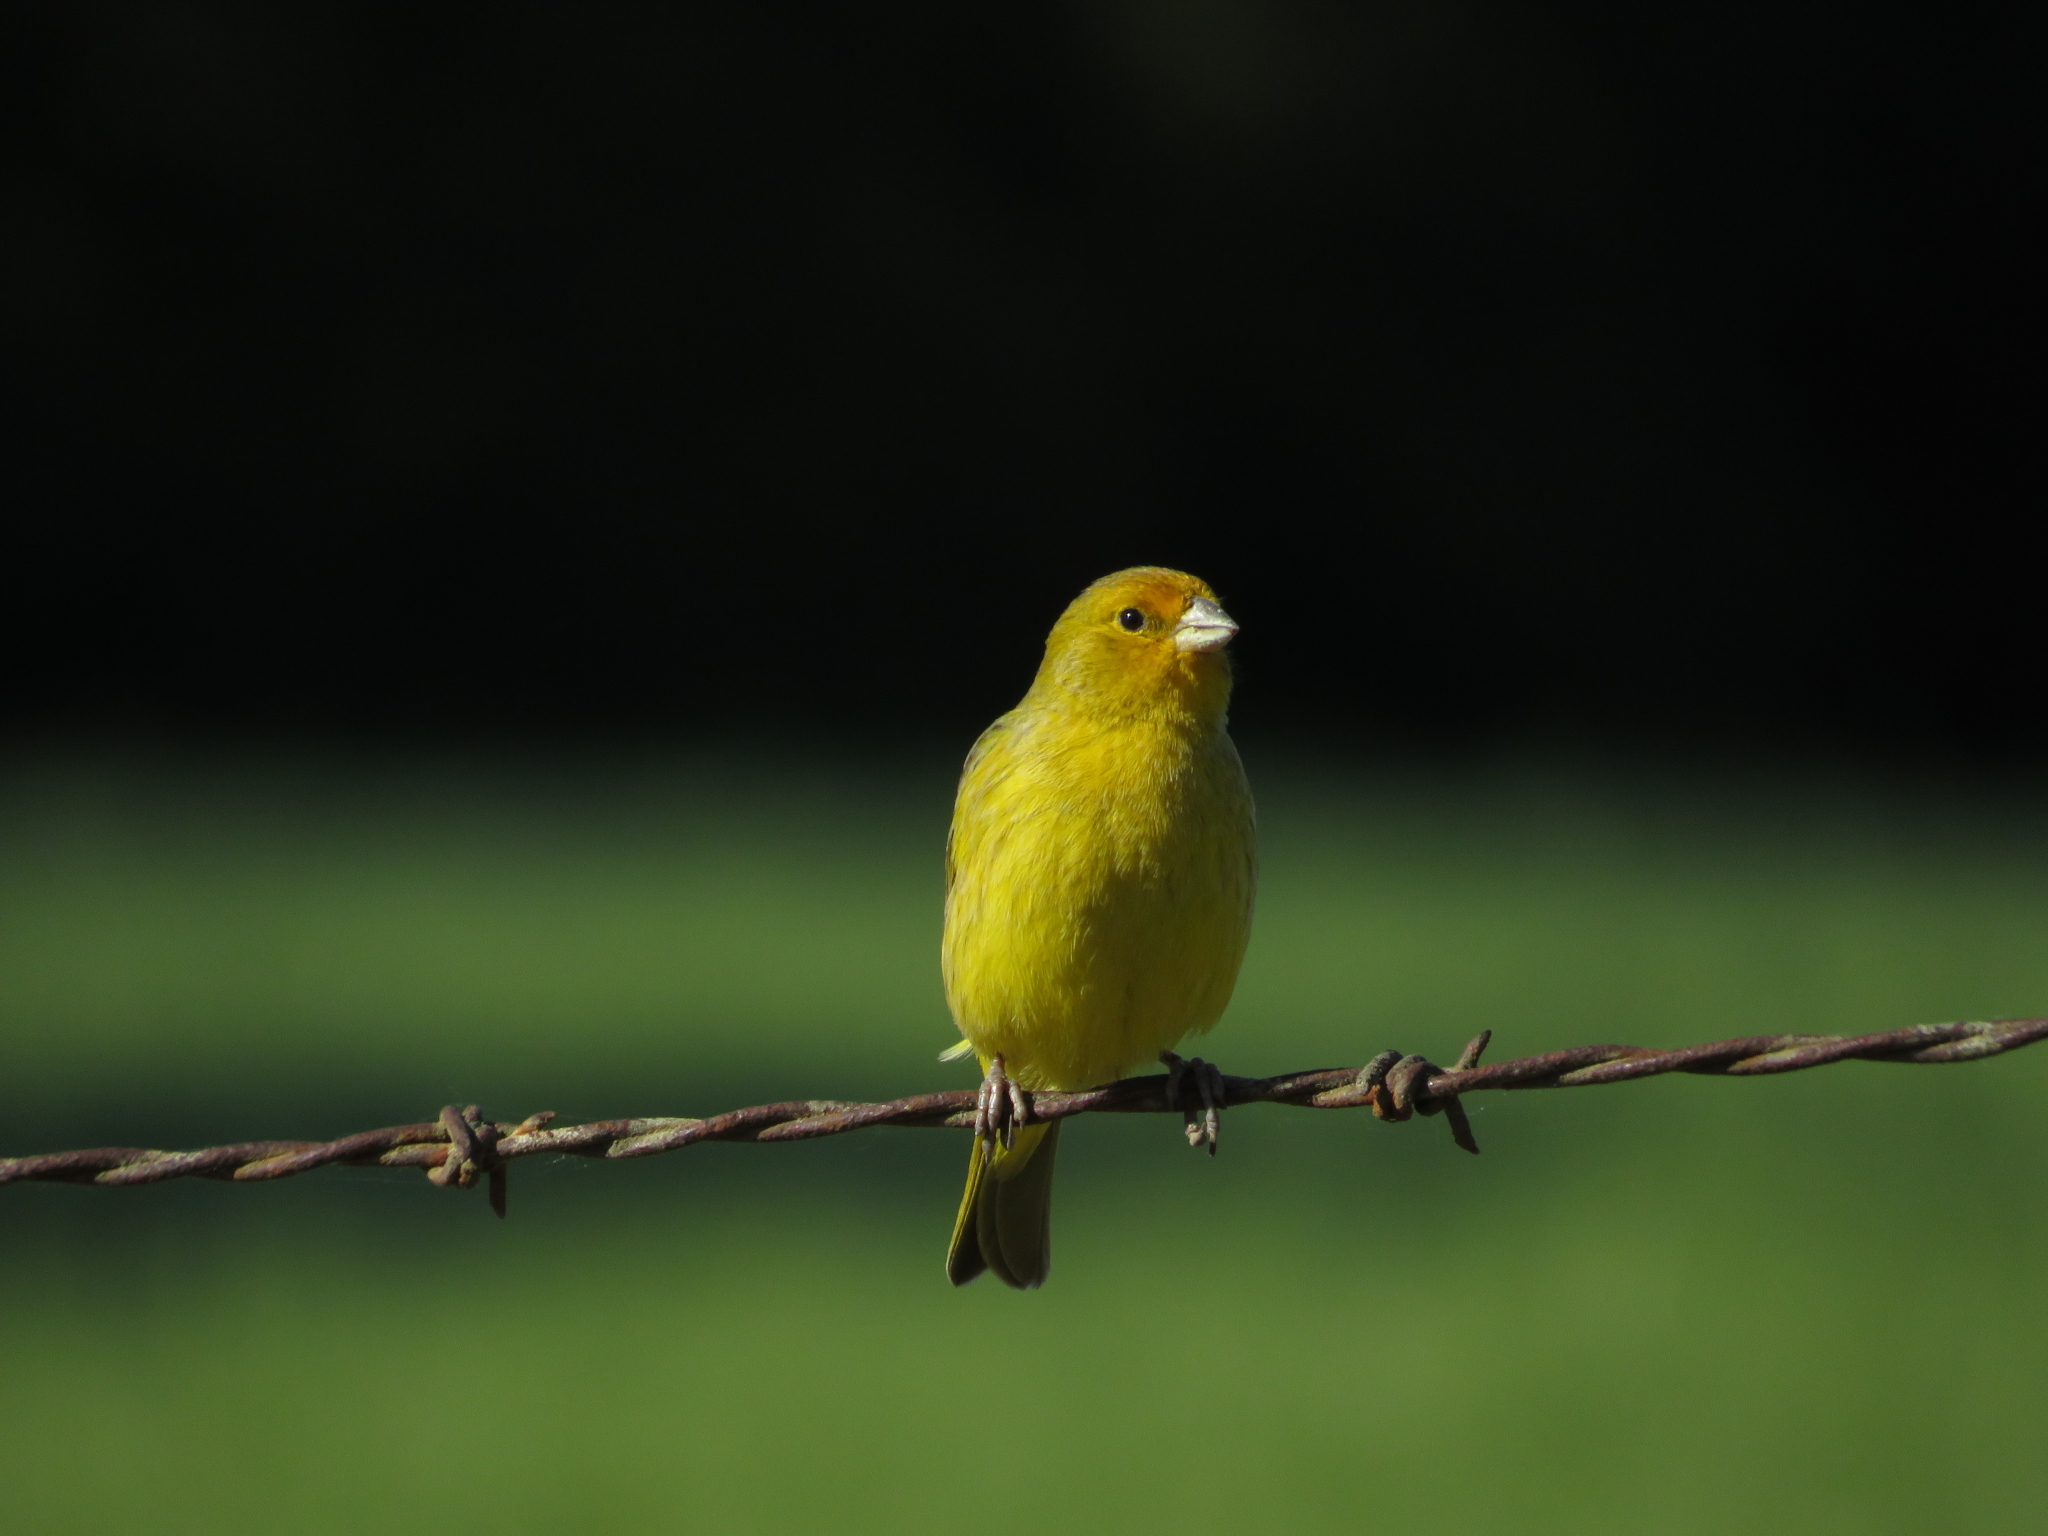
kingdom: Animalia
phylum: Chordata
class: Aves
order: Passeriformes
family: Thraupidae
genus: Sicalis
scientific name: Sicalis flaveola
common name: Saffron finch
